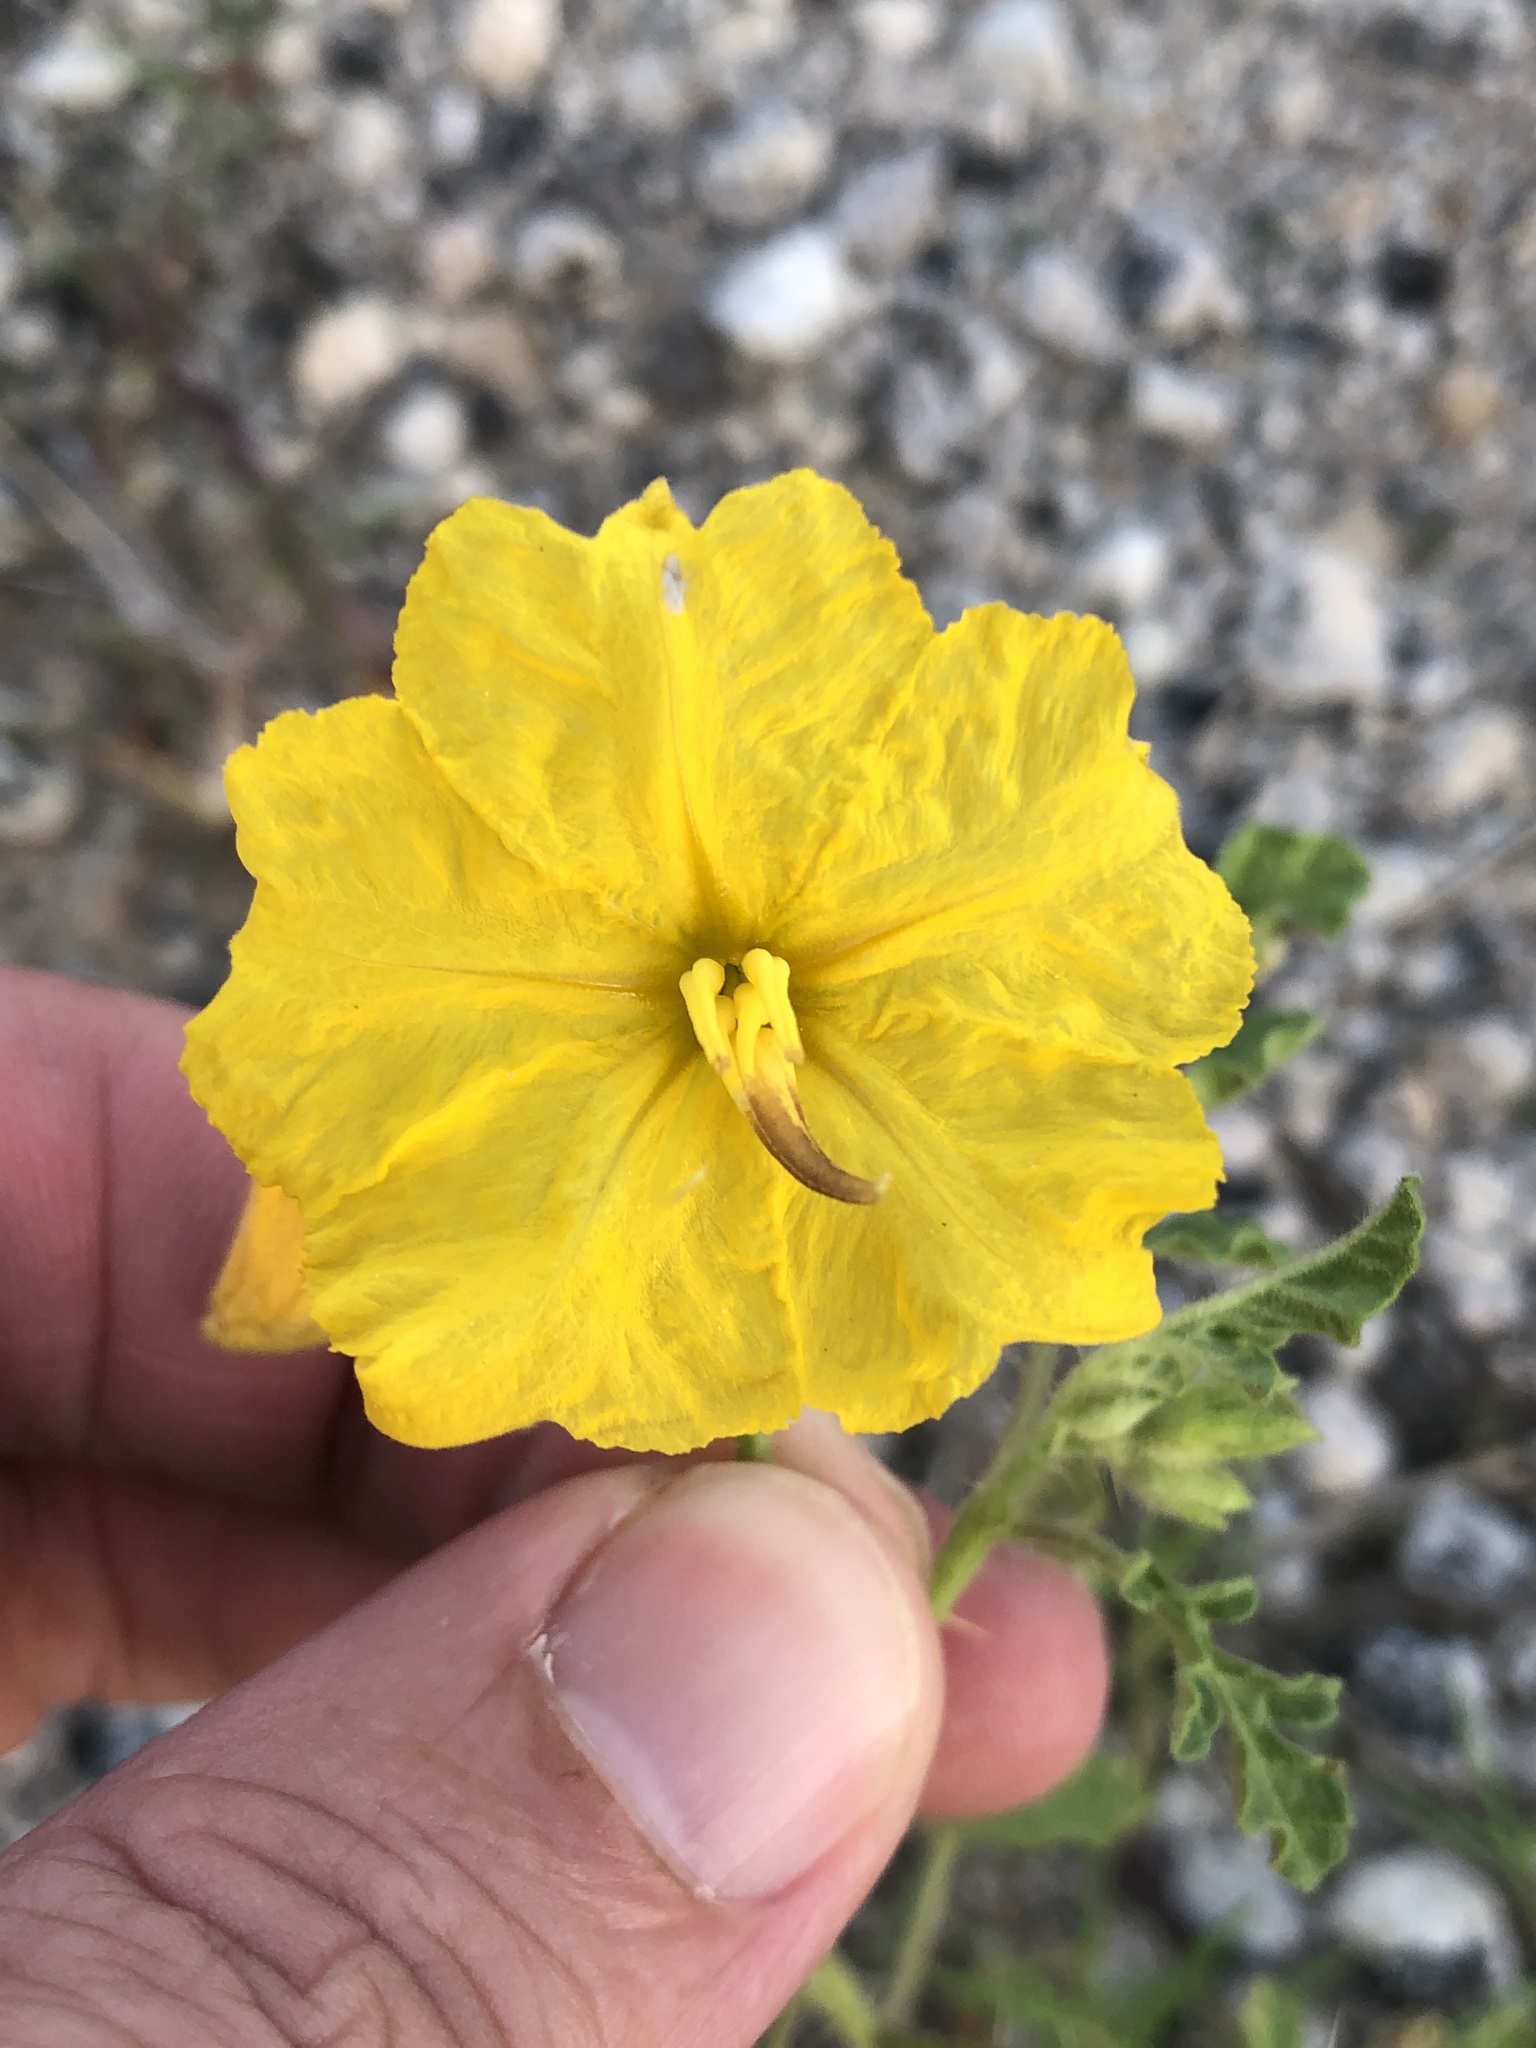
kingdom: Plantae
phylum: Tracheophyta
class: Magnoliopsida
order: Solanales
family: Solanaceae
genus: Solanum
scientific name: Solanum angustifolium
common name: Buffalobur nightshade
